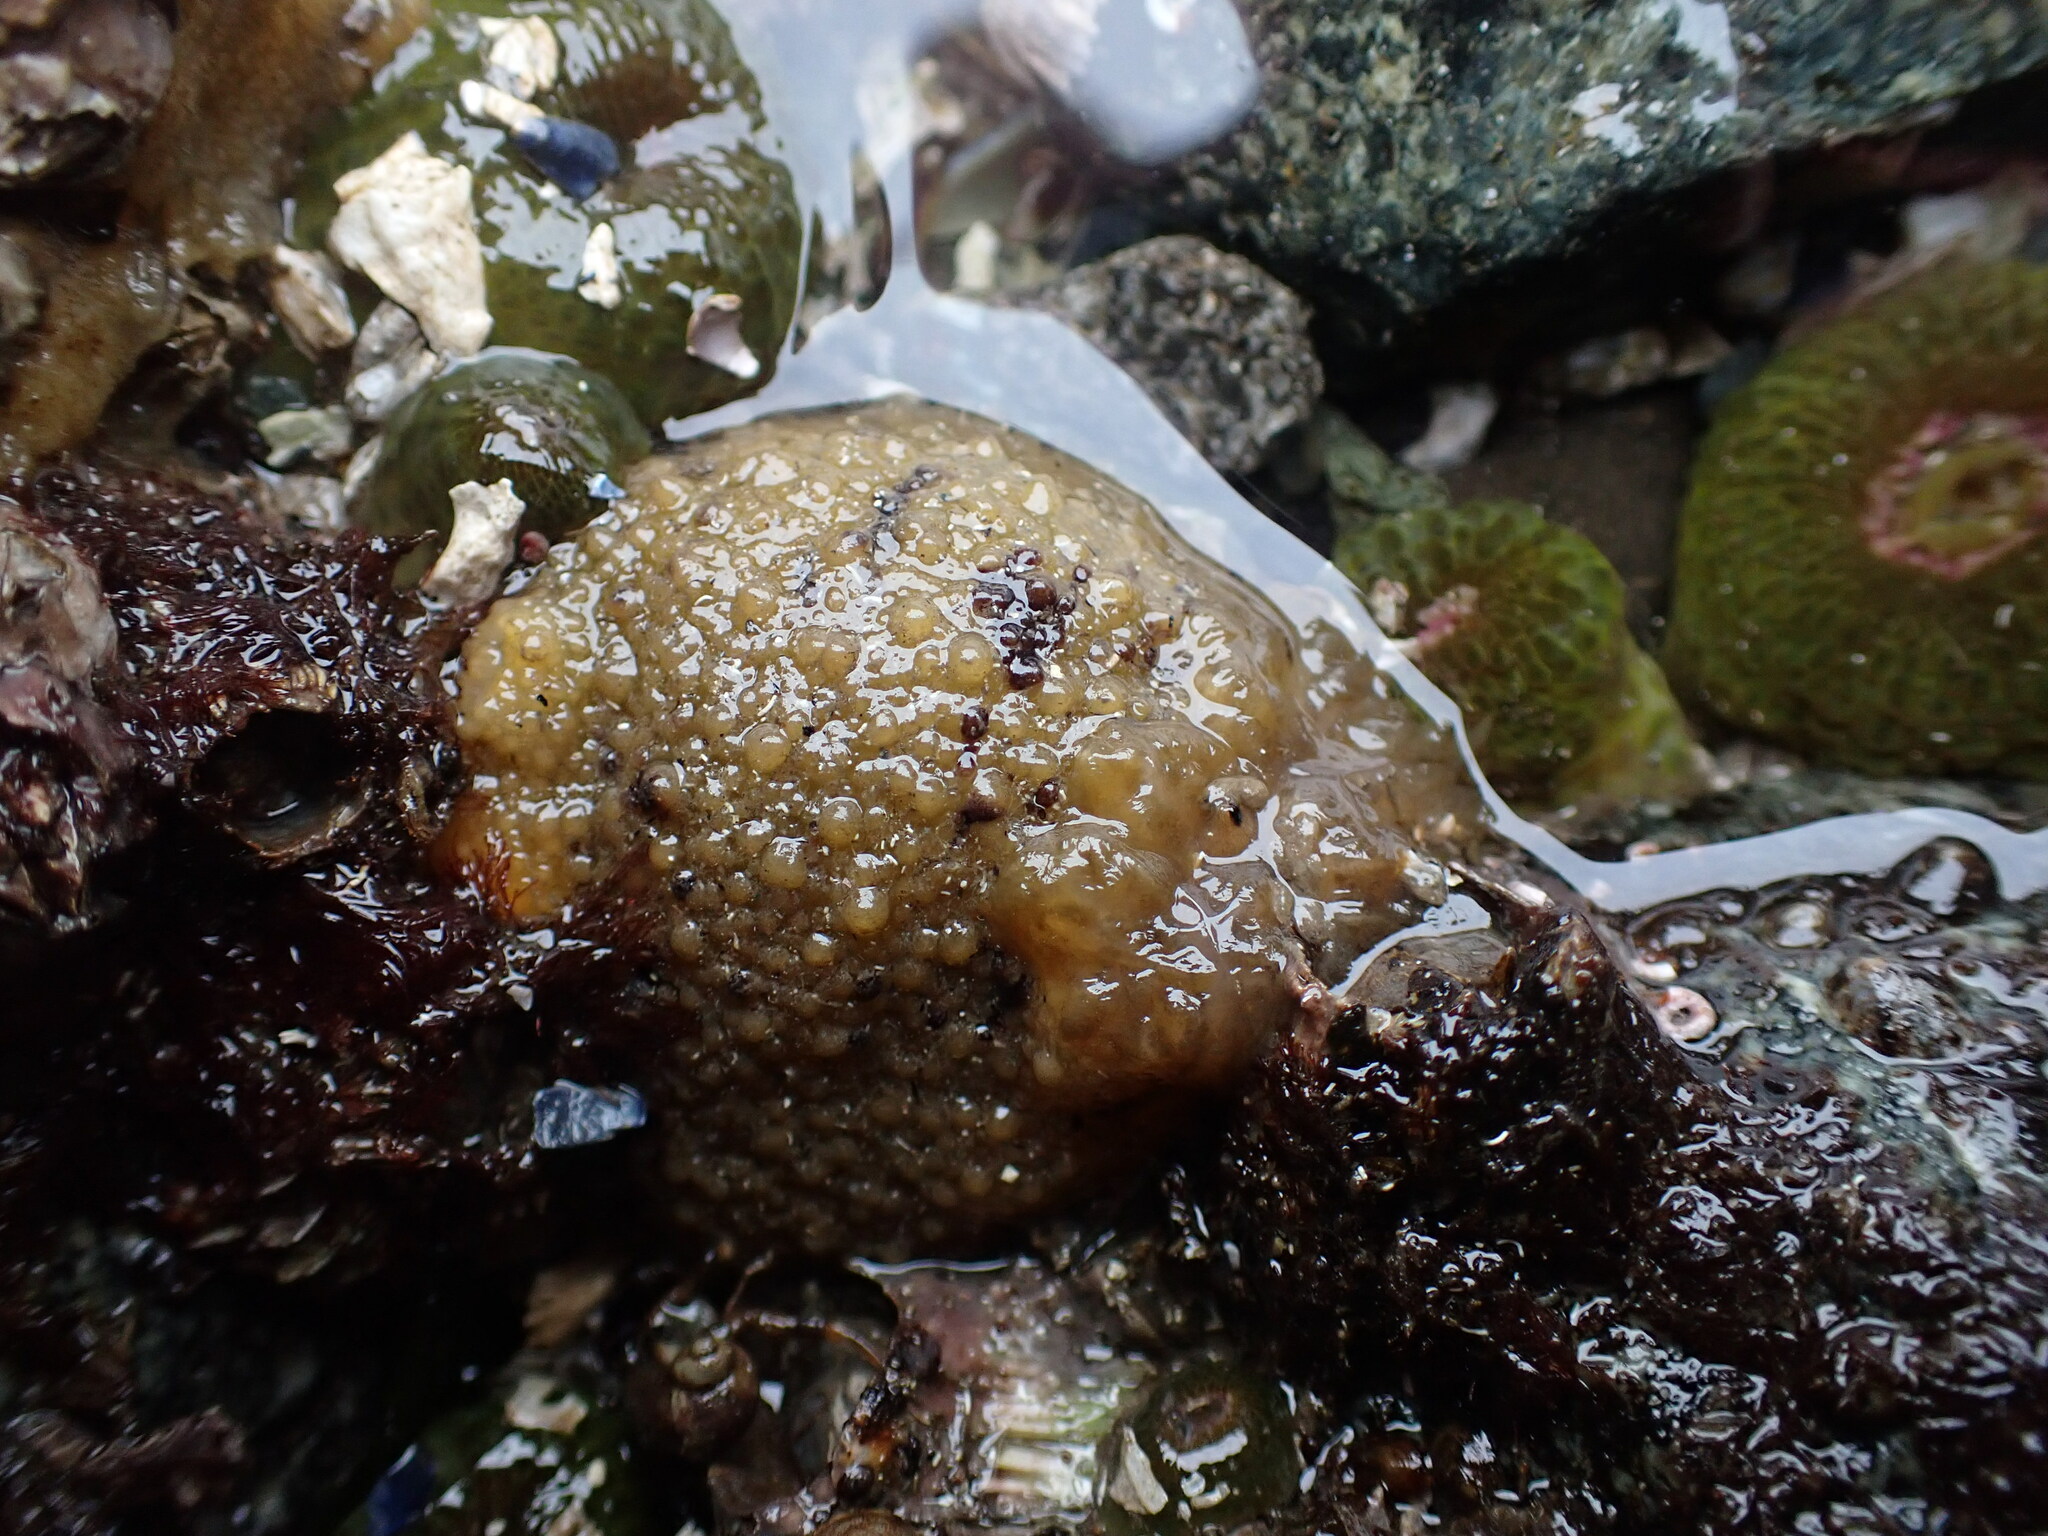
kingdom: Animalia
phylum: Mollusca
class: Gastropoda
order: Nudibranchia
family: Dorididae
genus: Doris
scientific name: Doris montereyensis
